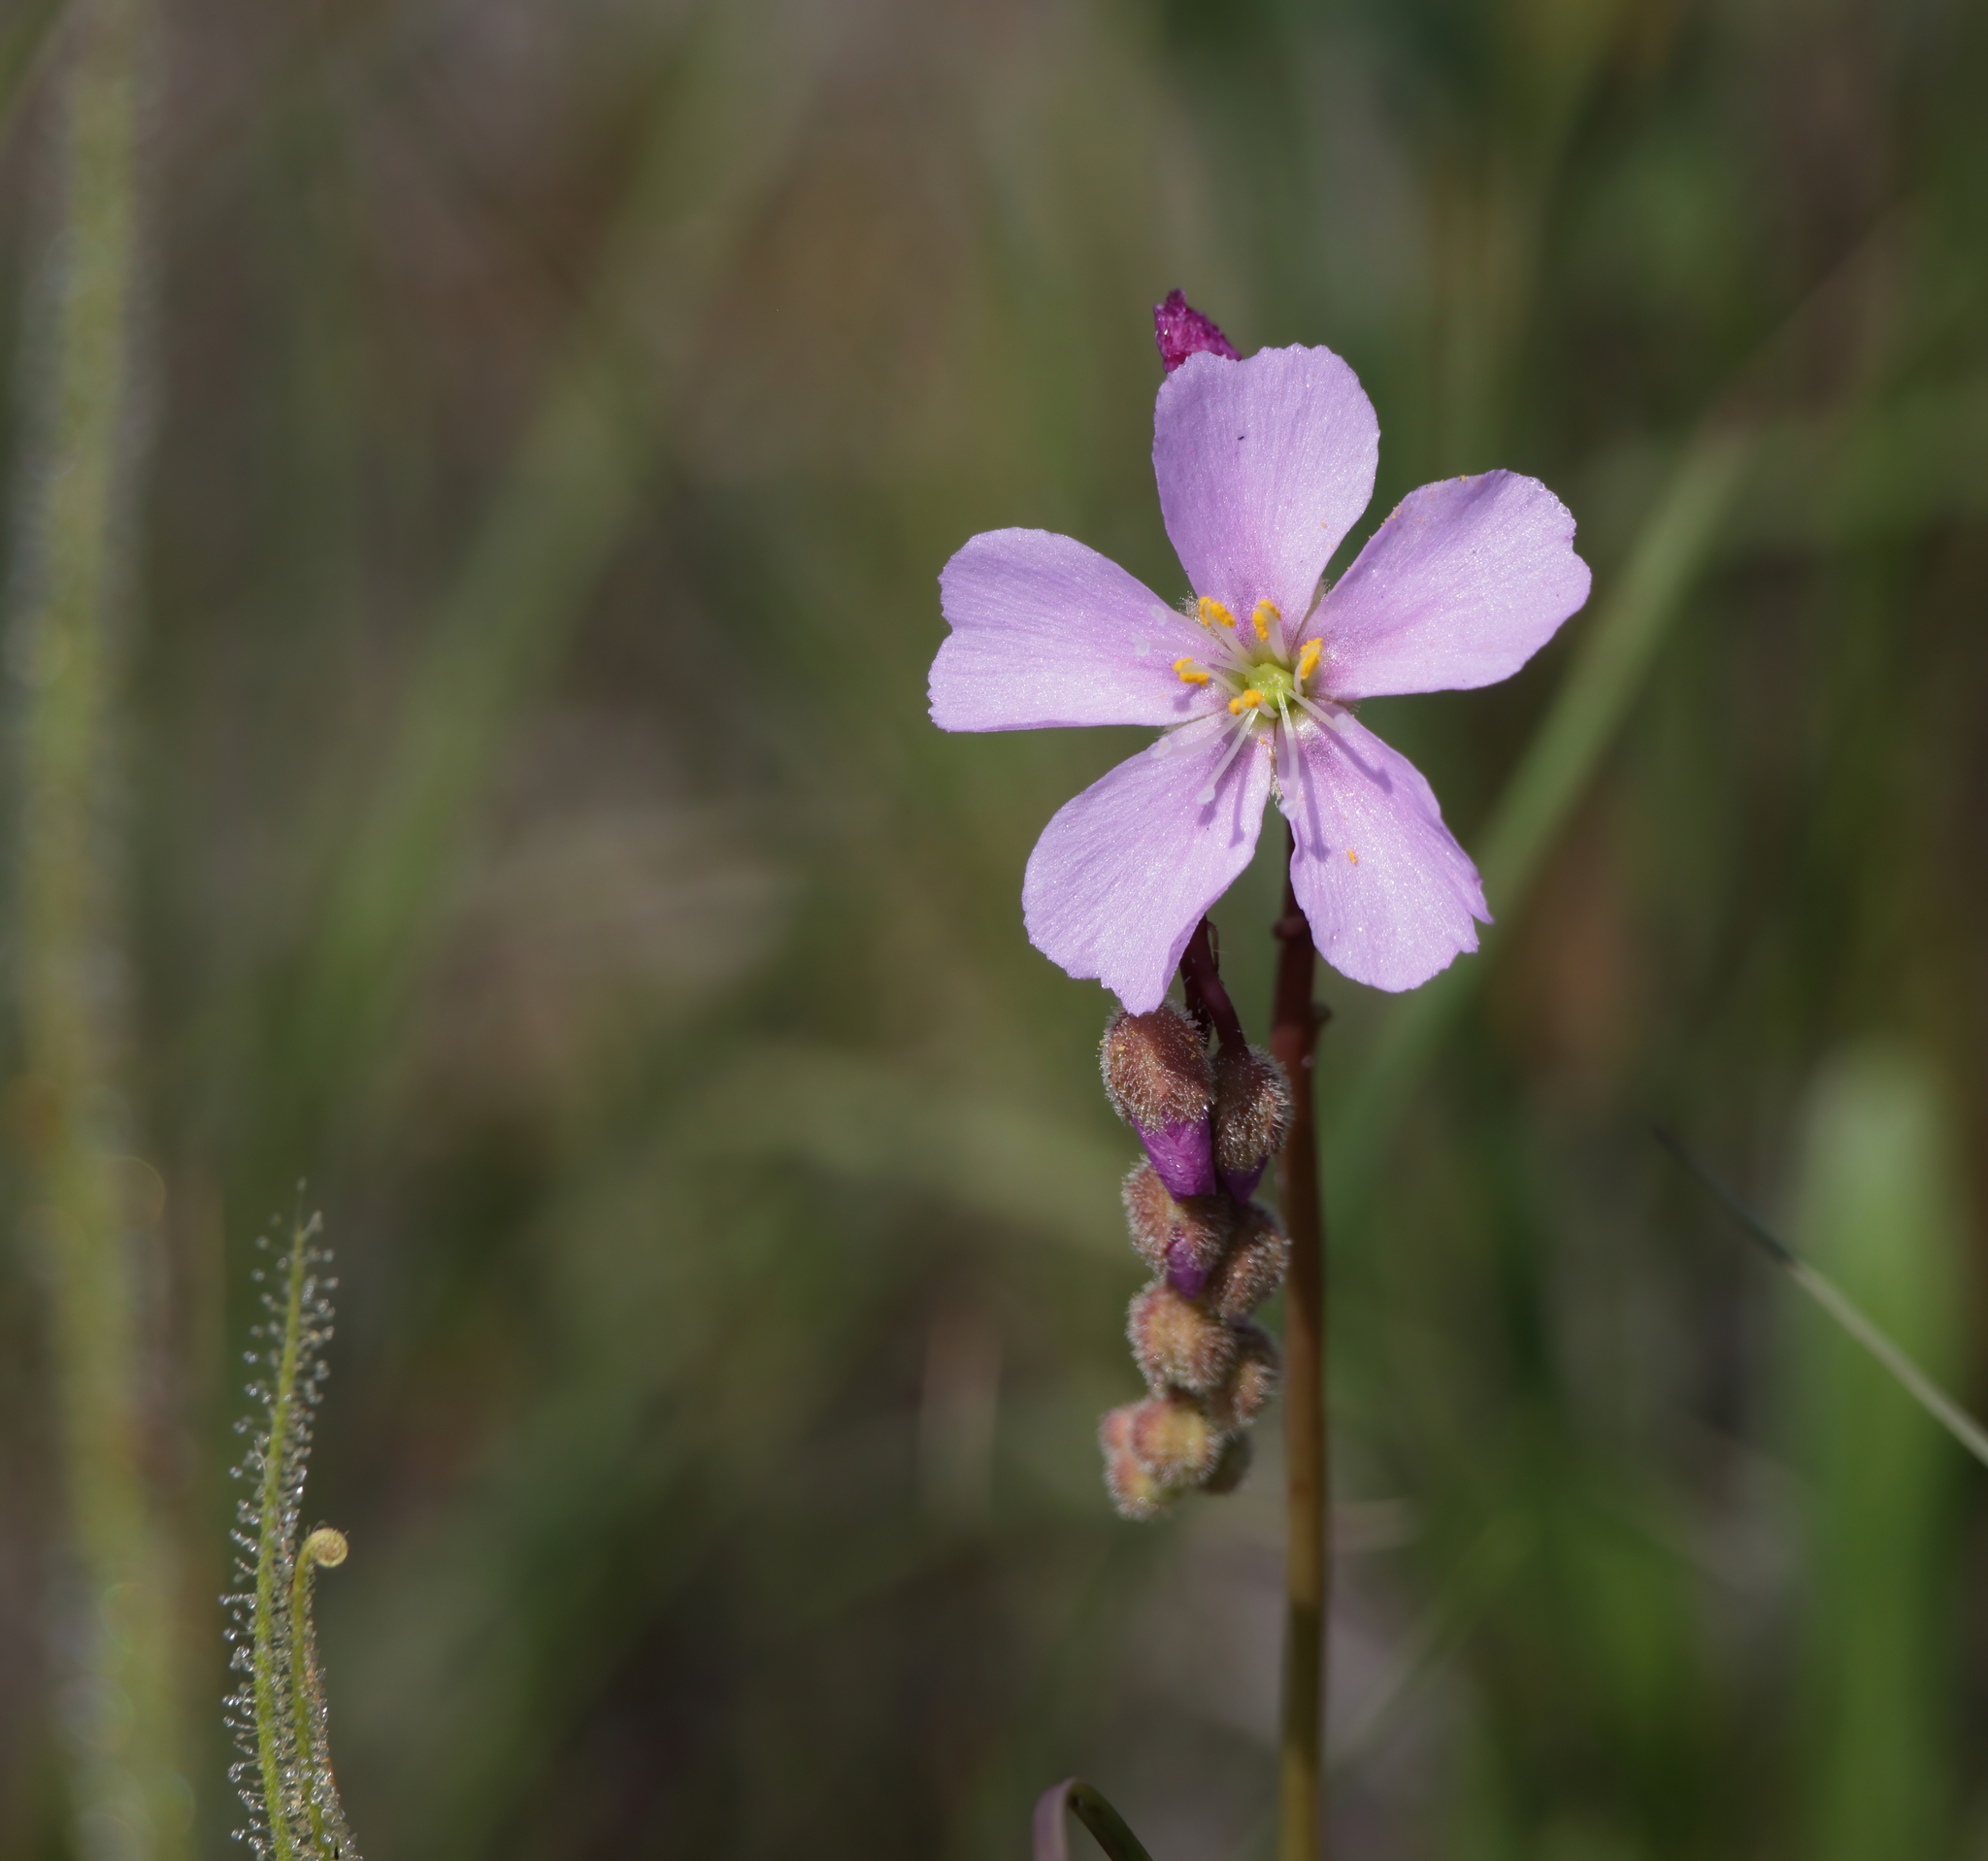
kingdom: Plantae
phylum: Tracheophyta
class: Magnoliopsida
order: Caryophyllales
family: Droseraceae
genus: Drosera
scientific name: Drosera filiformis
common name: Dew-thread
